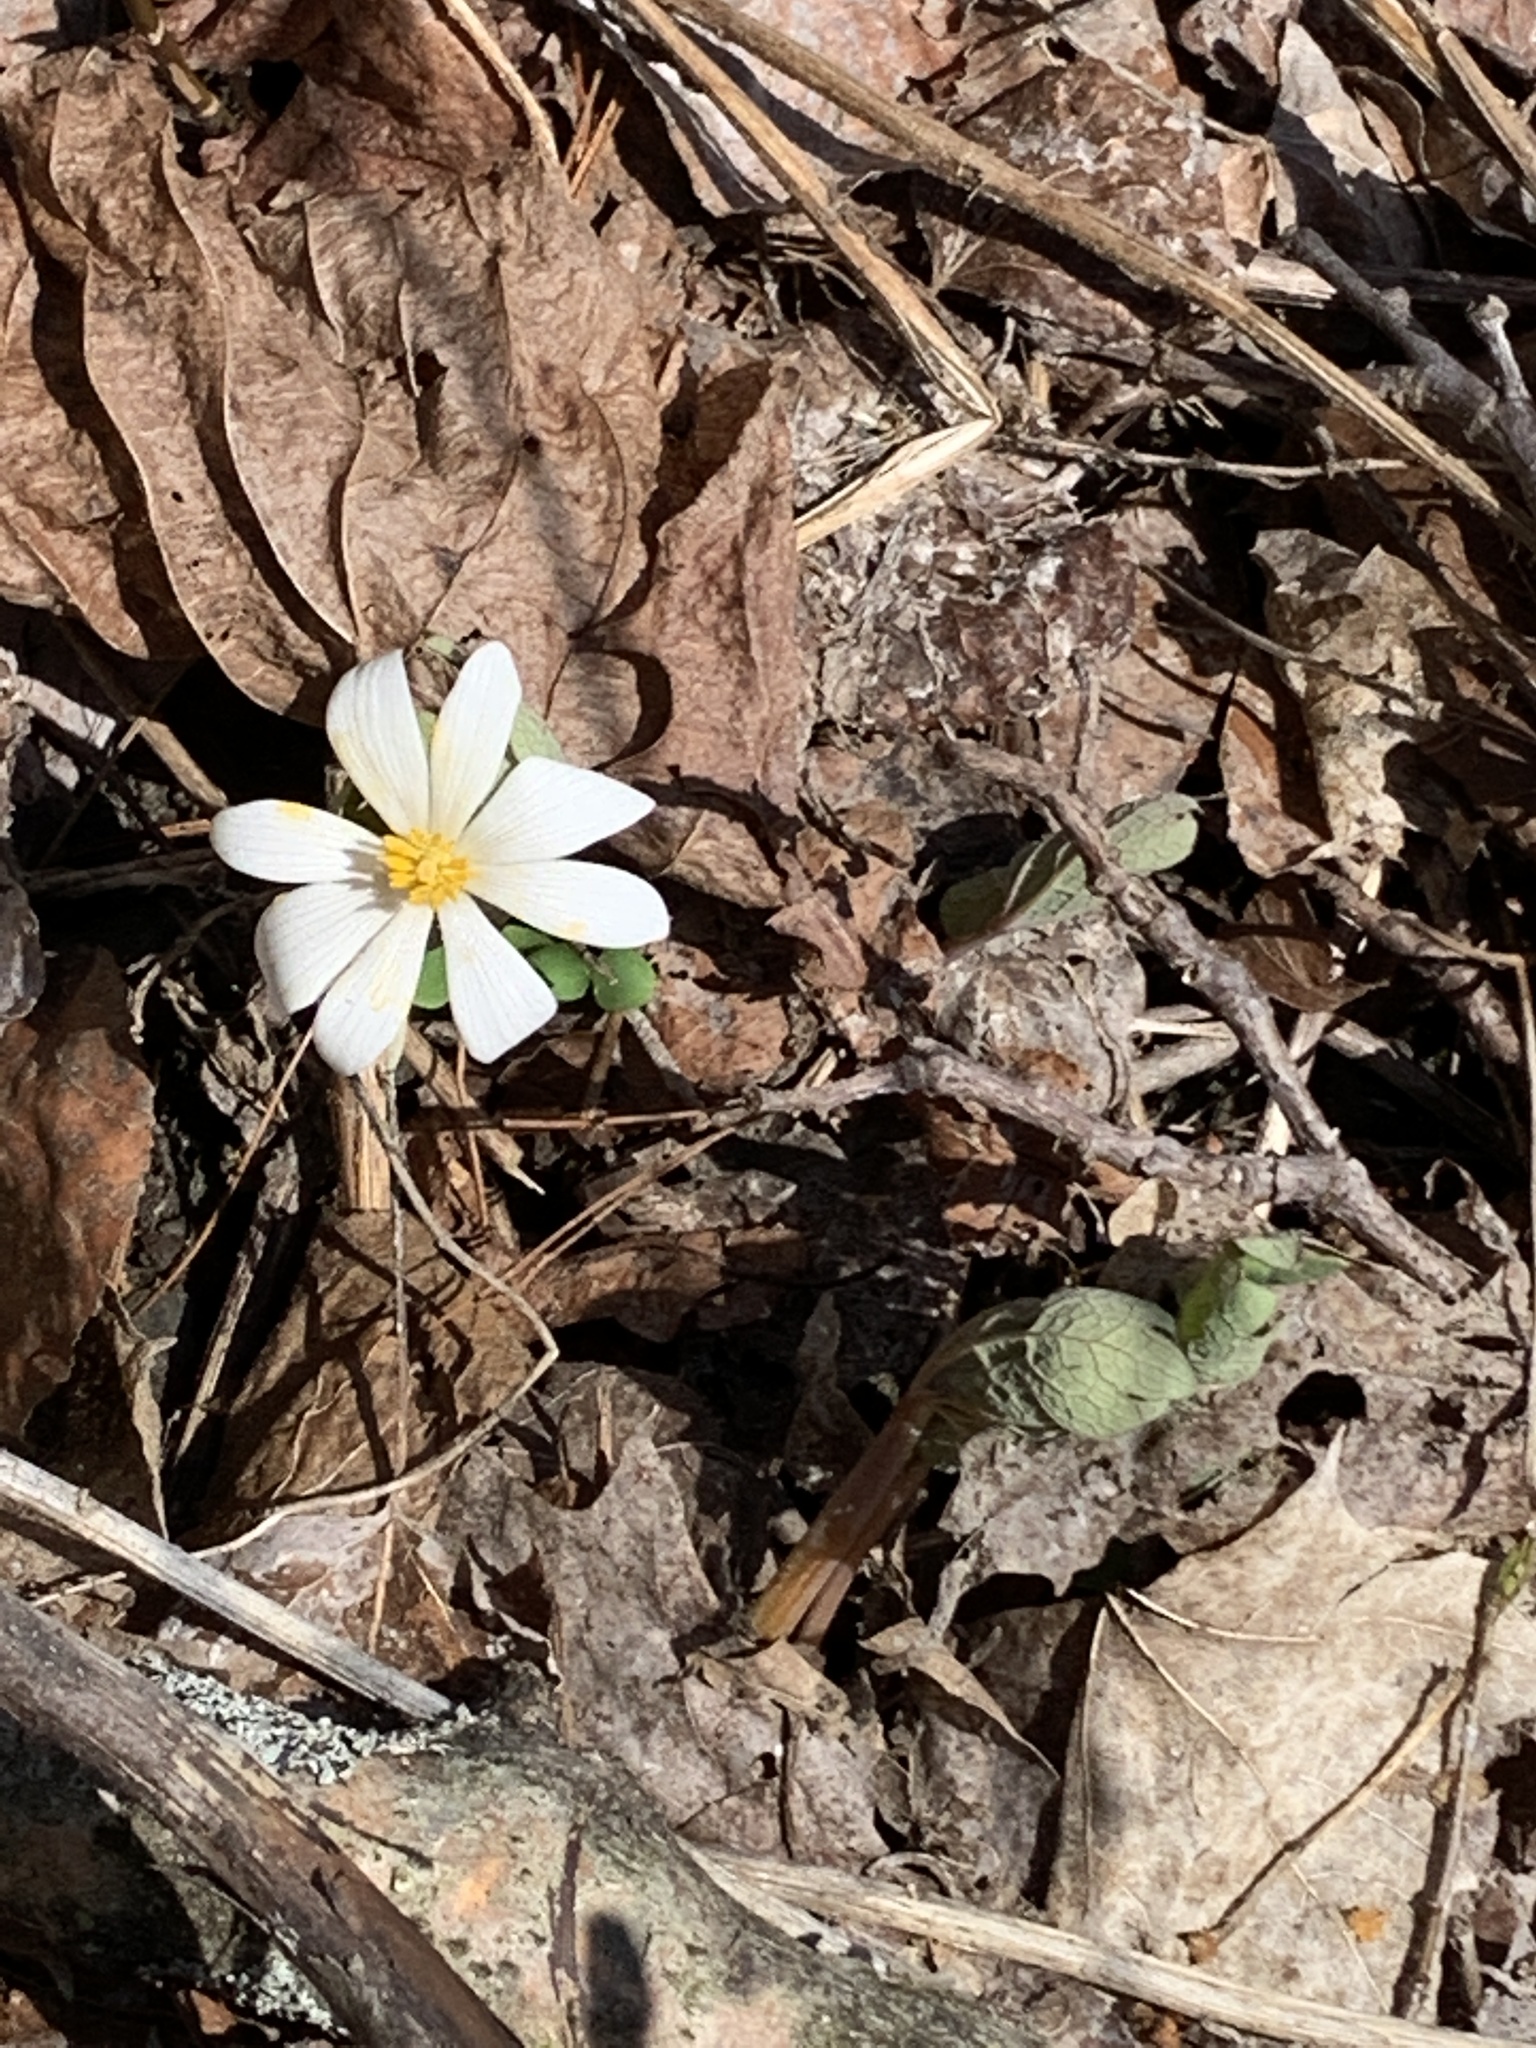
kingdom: Plantae
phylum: Tracheophyta
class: Magnoliopsida
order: Ranunculales
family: Papaveraceae
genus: Sanguinaria
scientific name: Sanguinaria canadensis
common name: Bloodroot
